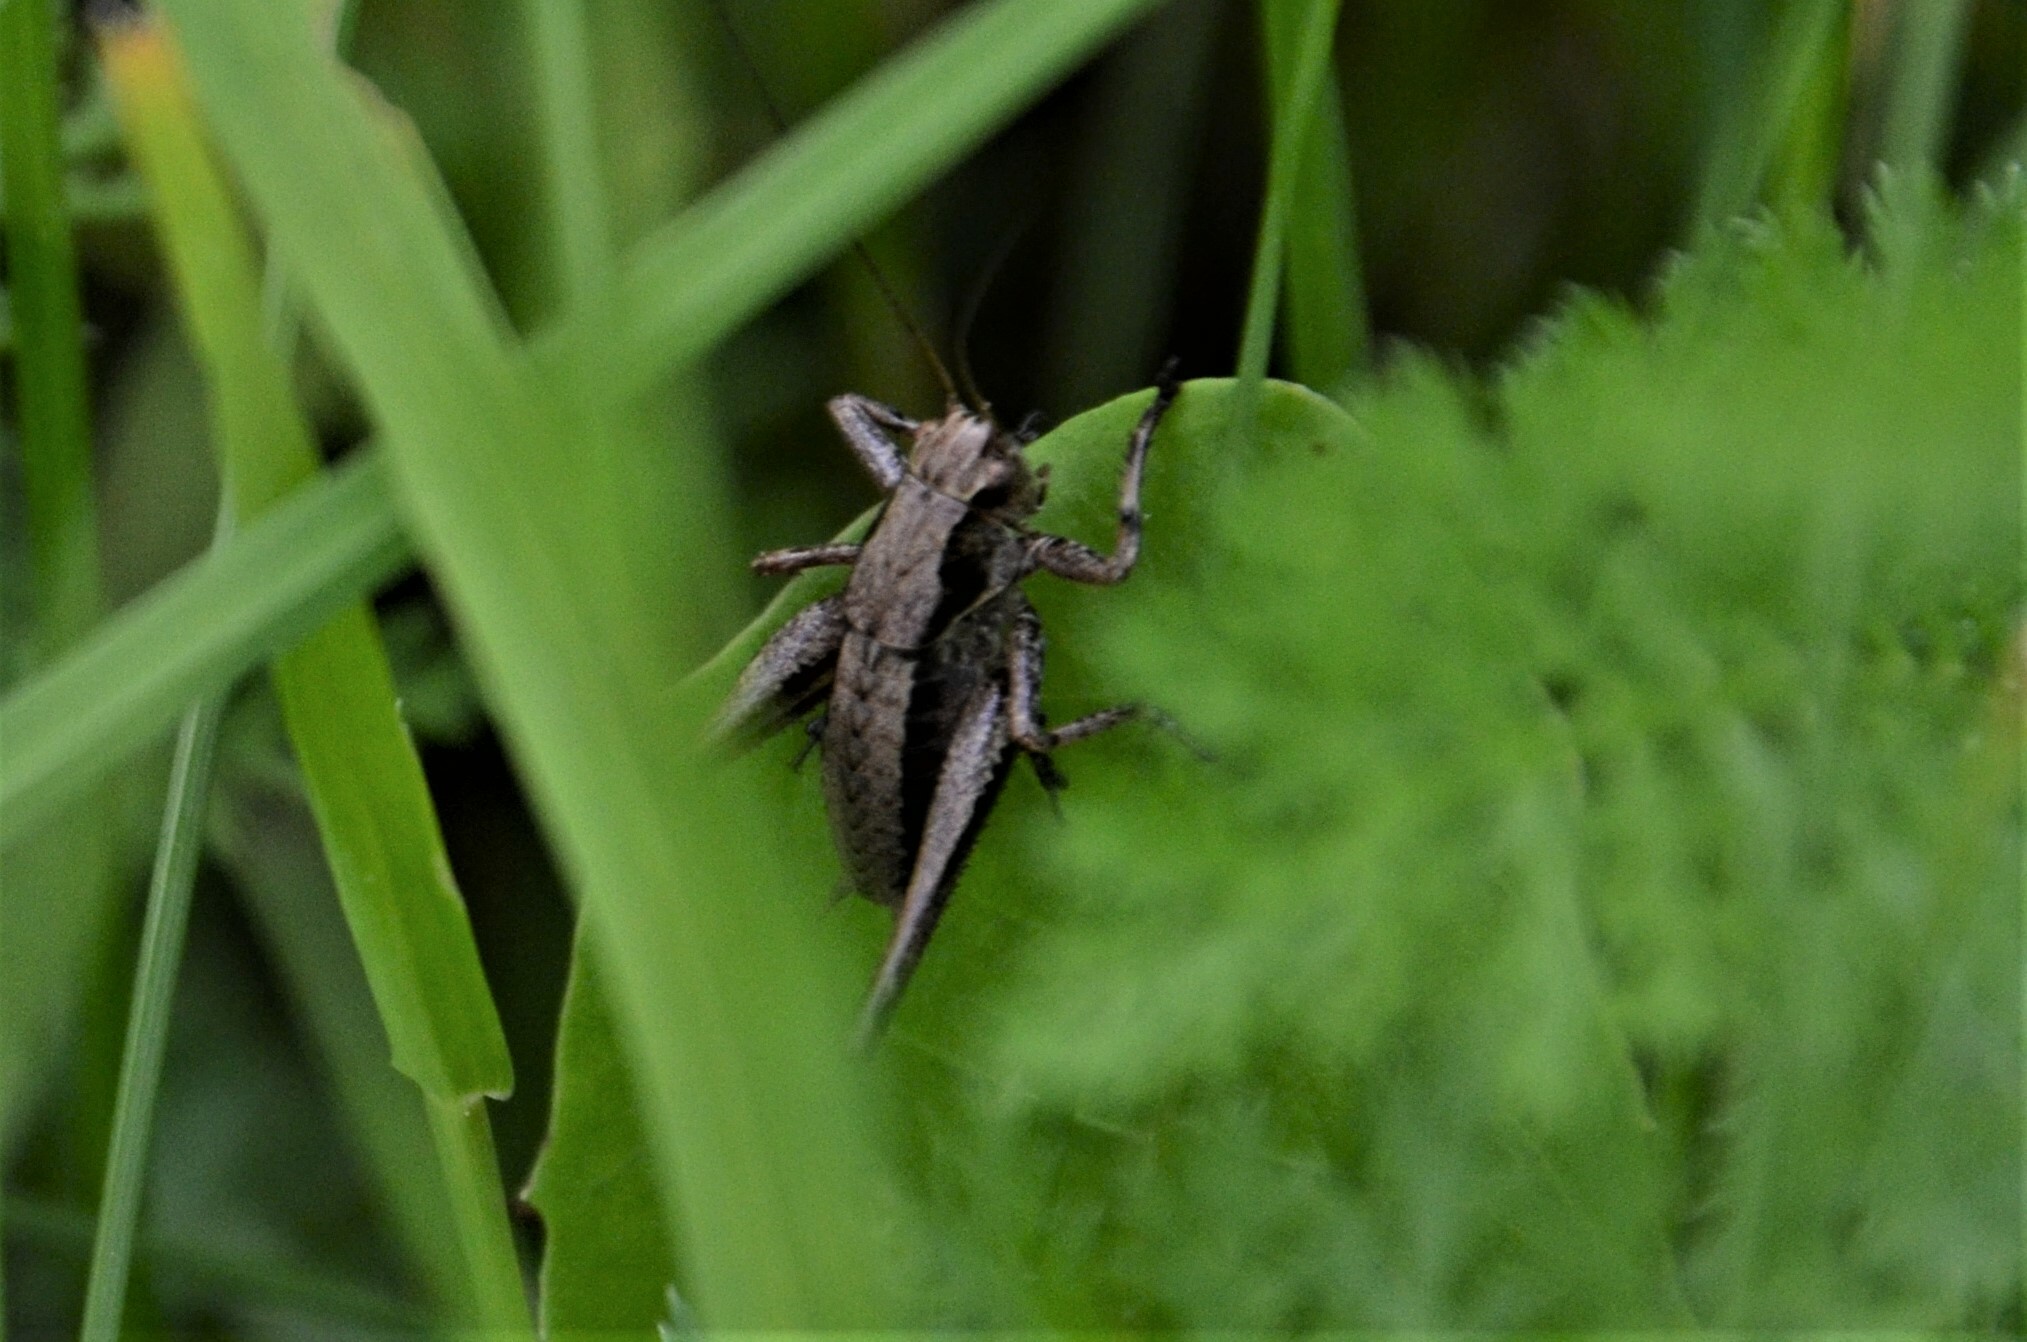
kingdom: Animalia
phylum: Arthropoda
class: Insecta
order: Orthoptera
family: Tettigoniidae
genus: Pholidoptera
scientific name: Pholidoptera griseoaptera
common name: Dark bush-cricket
